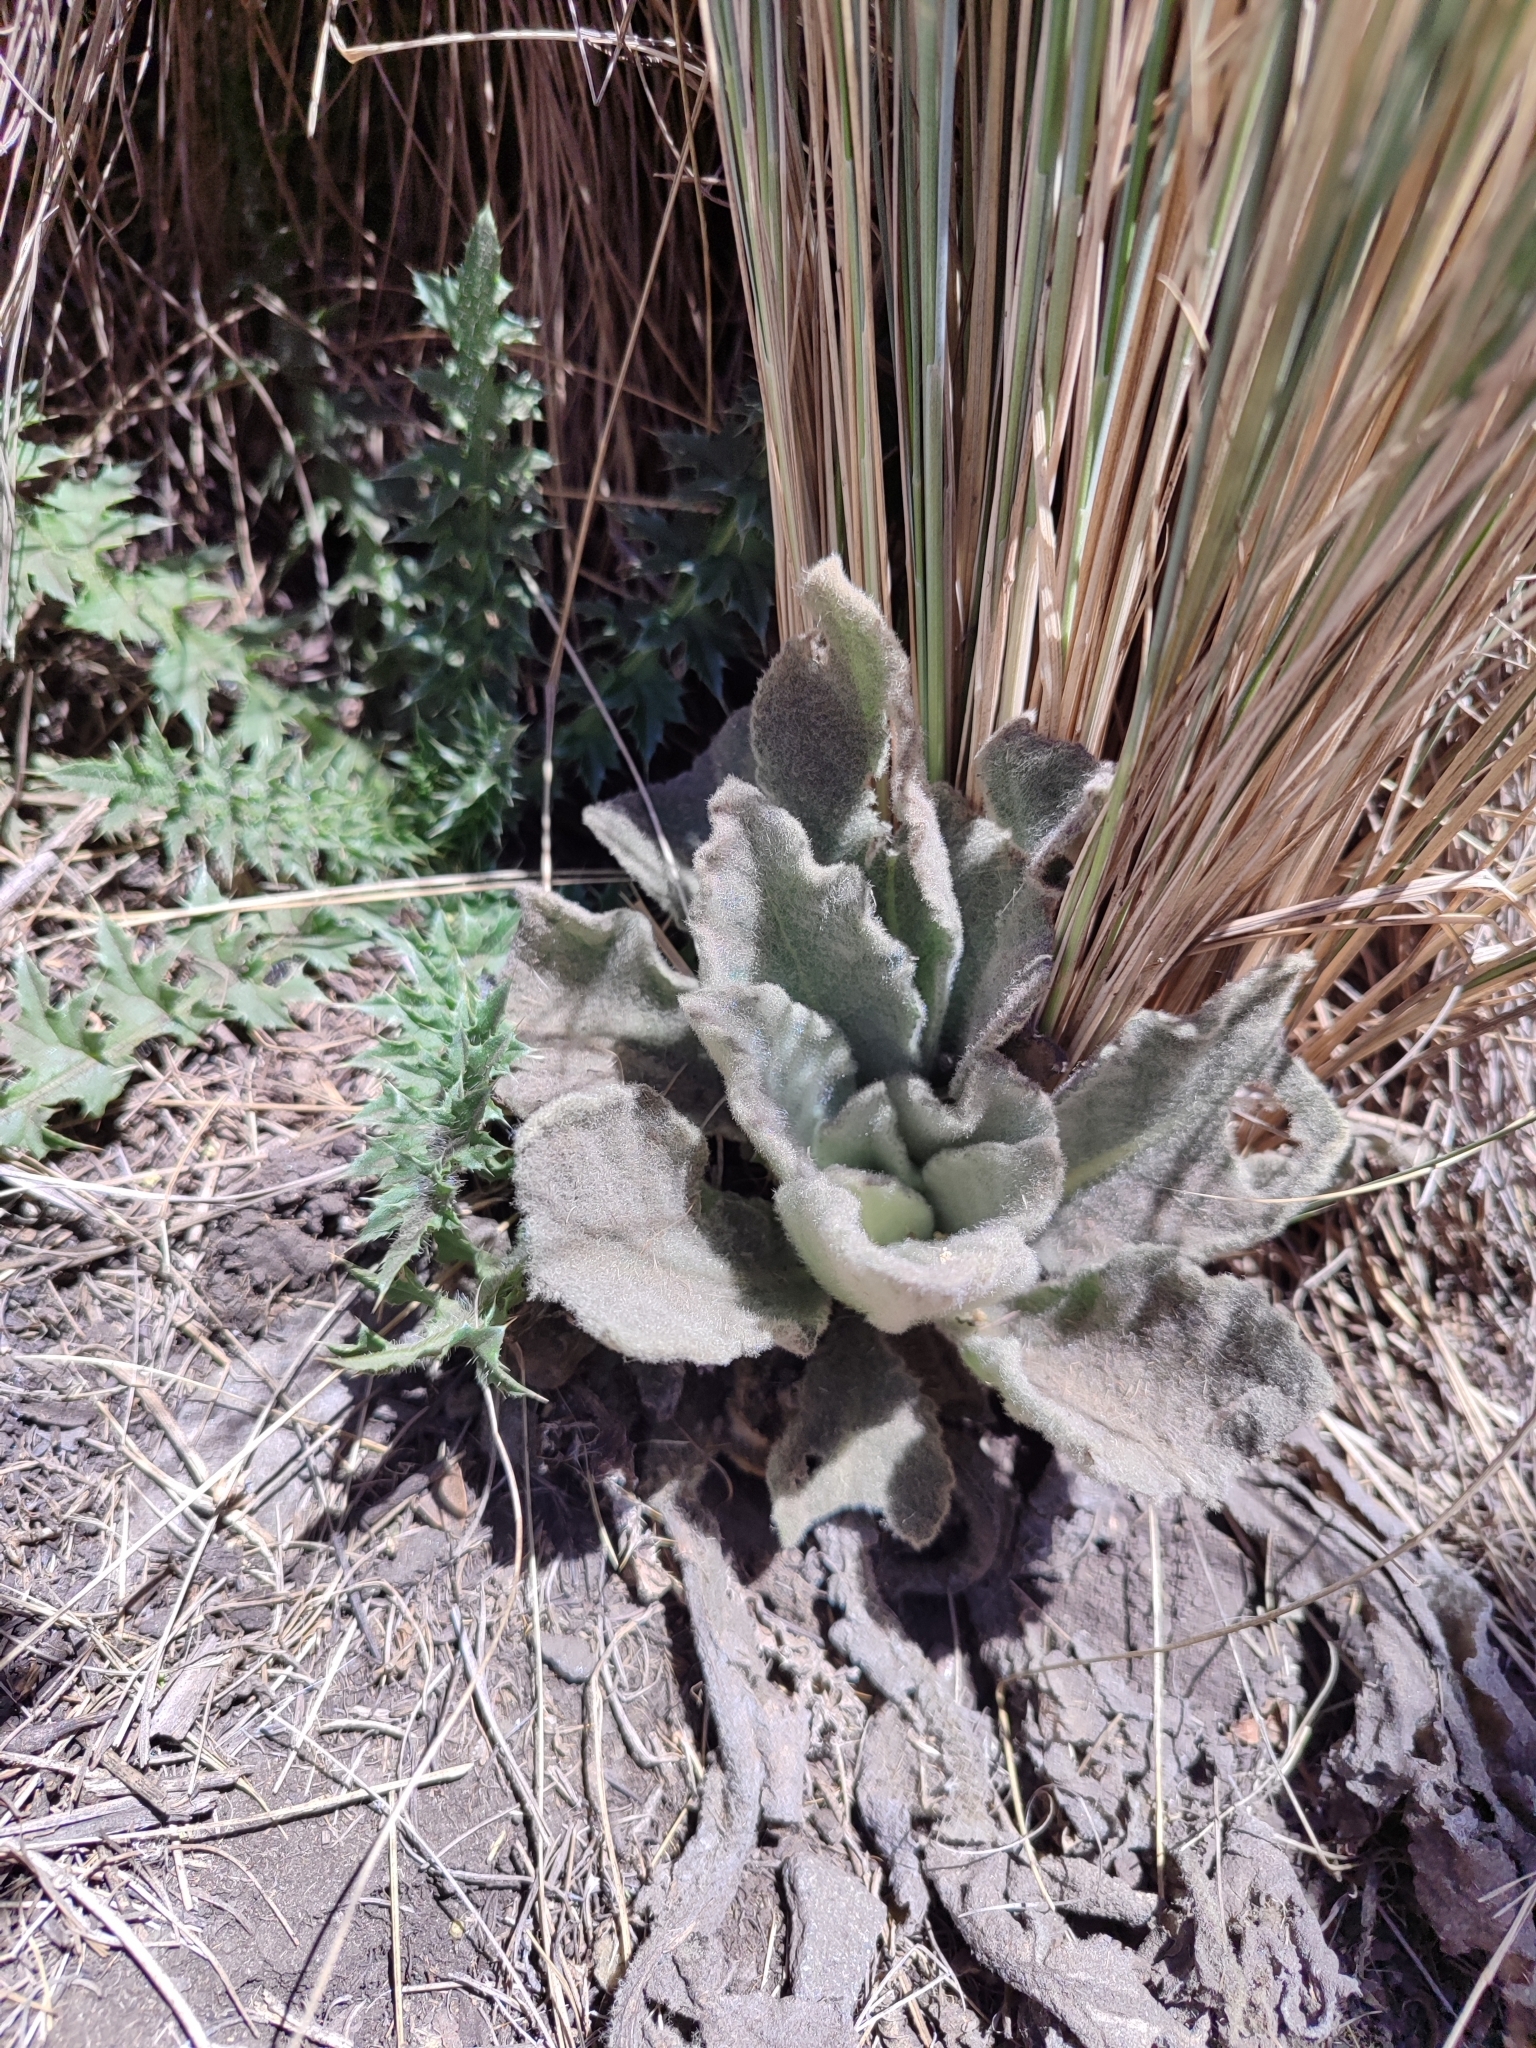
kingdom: Plantae
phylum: Tracheophyta
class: Magnoliopsida
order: Lamiales
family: Scrophulariaceae
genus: Verbascum
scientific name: Verbascum thapsus
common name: Common mullein
